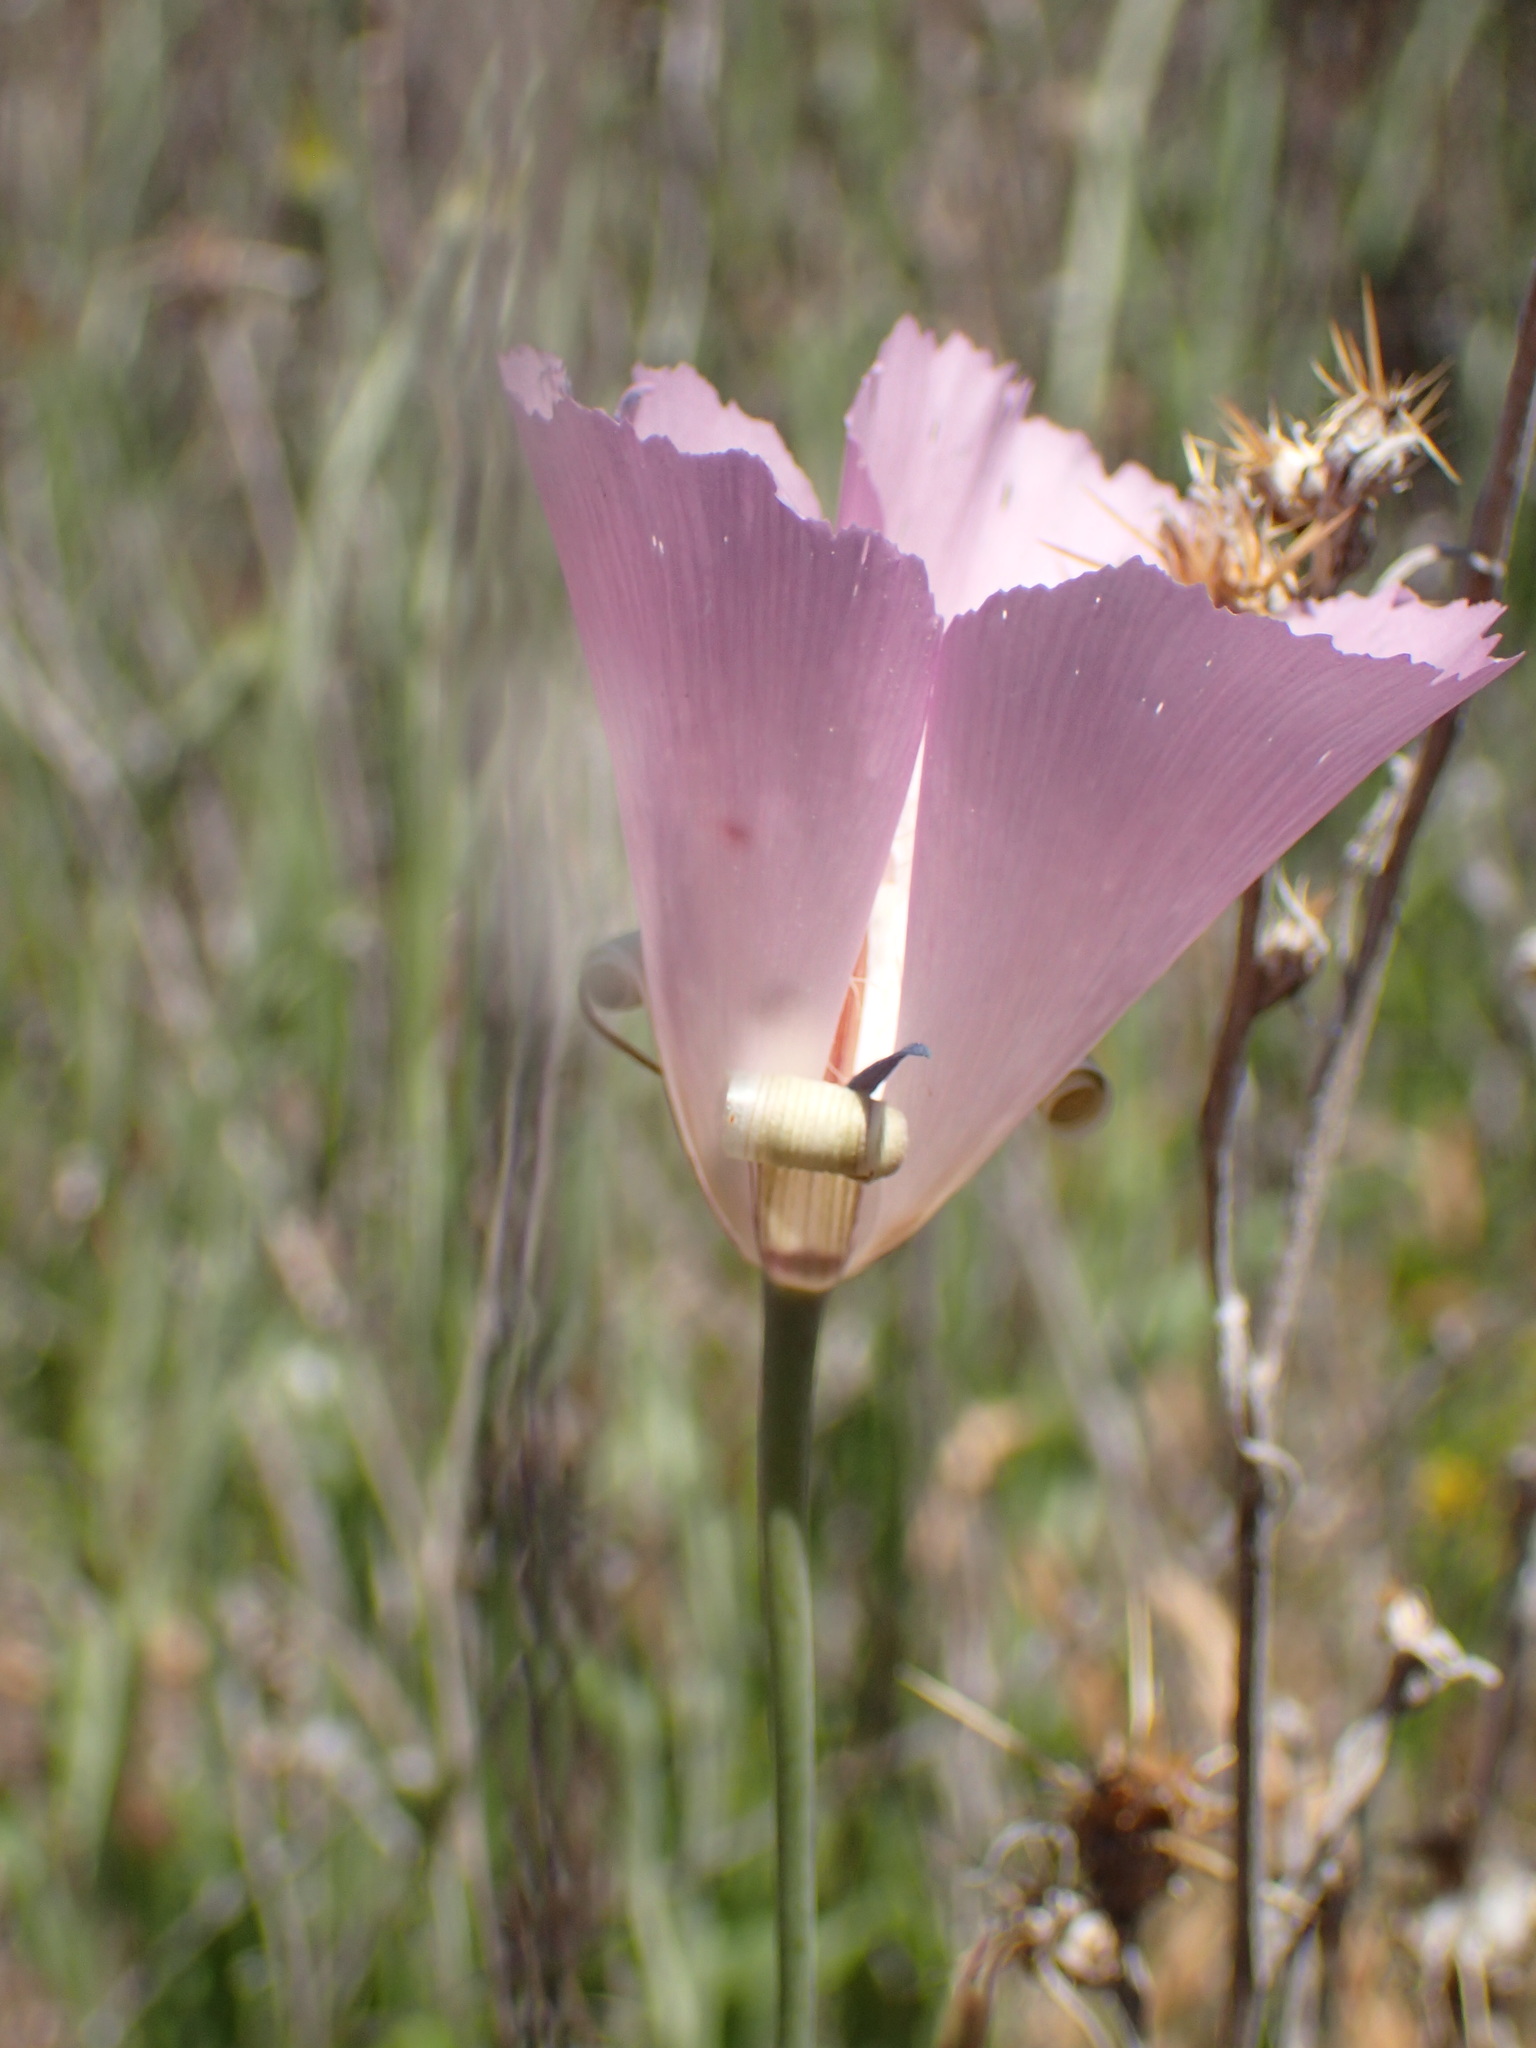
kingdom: Plantae
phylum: Tracheophyta
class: Liliopsida
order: Liliales
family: Liliaceae
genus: Calochortus
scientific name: Calochortus splendens
